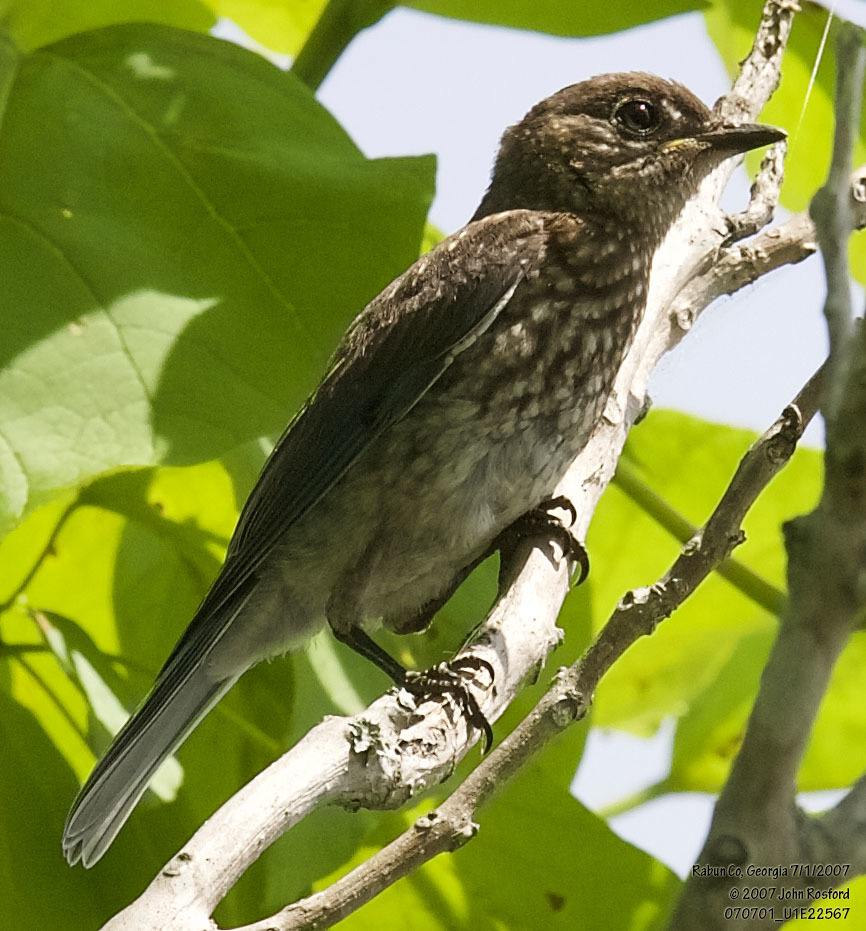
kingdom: Animalia
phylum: Chordata
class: Aves
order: Passeriformes
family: Turdidae
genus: Sialia
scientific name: Sialia sialis
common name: Eastern bluebird
